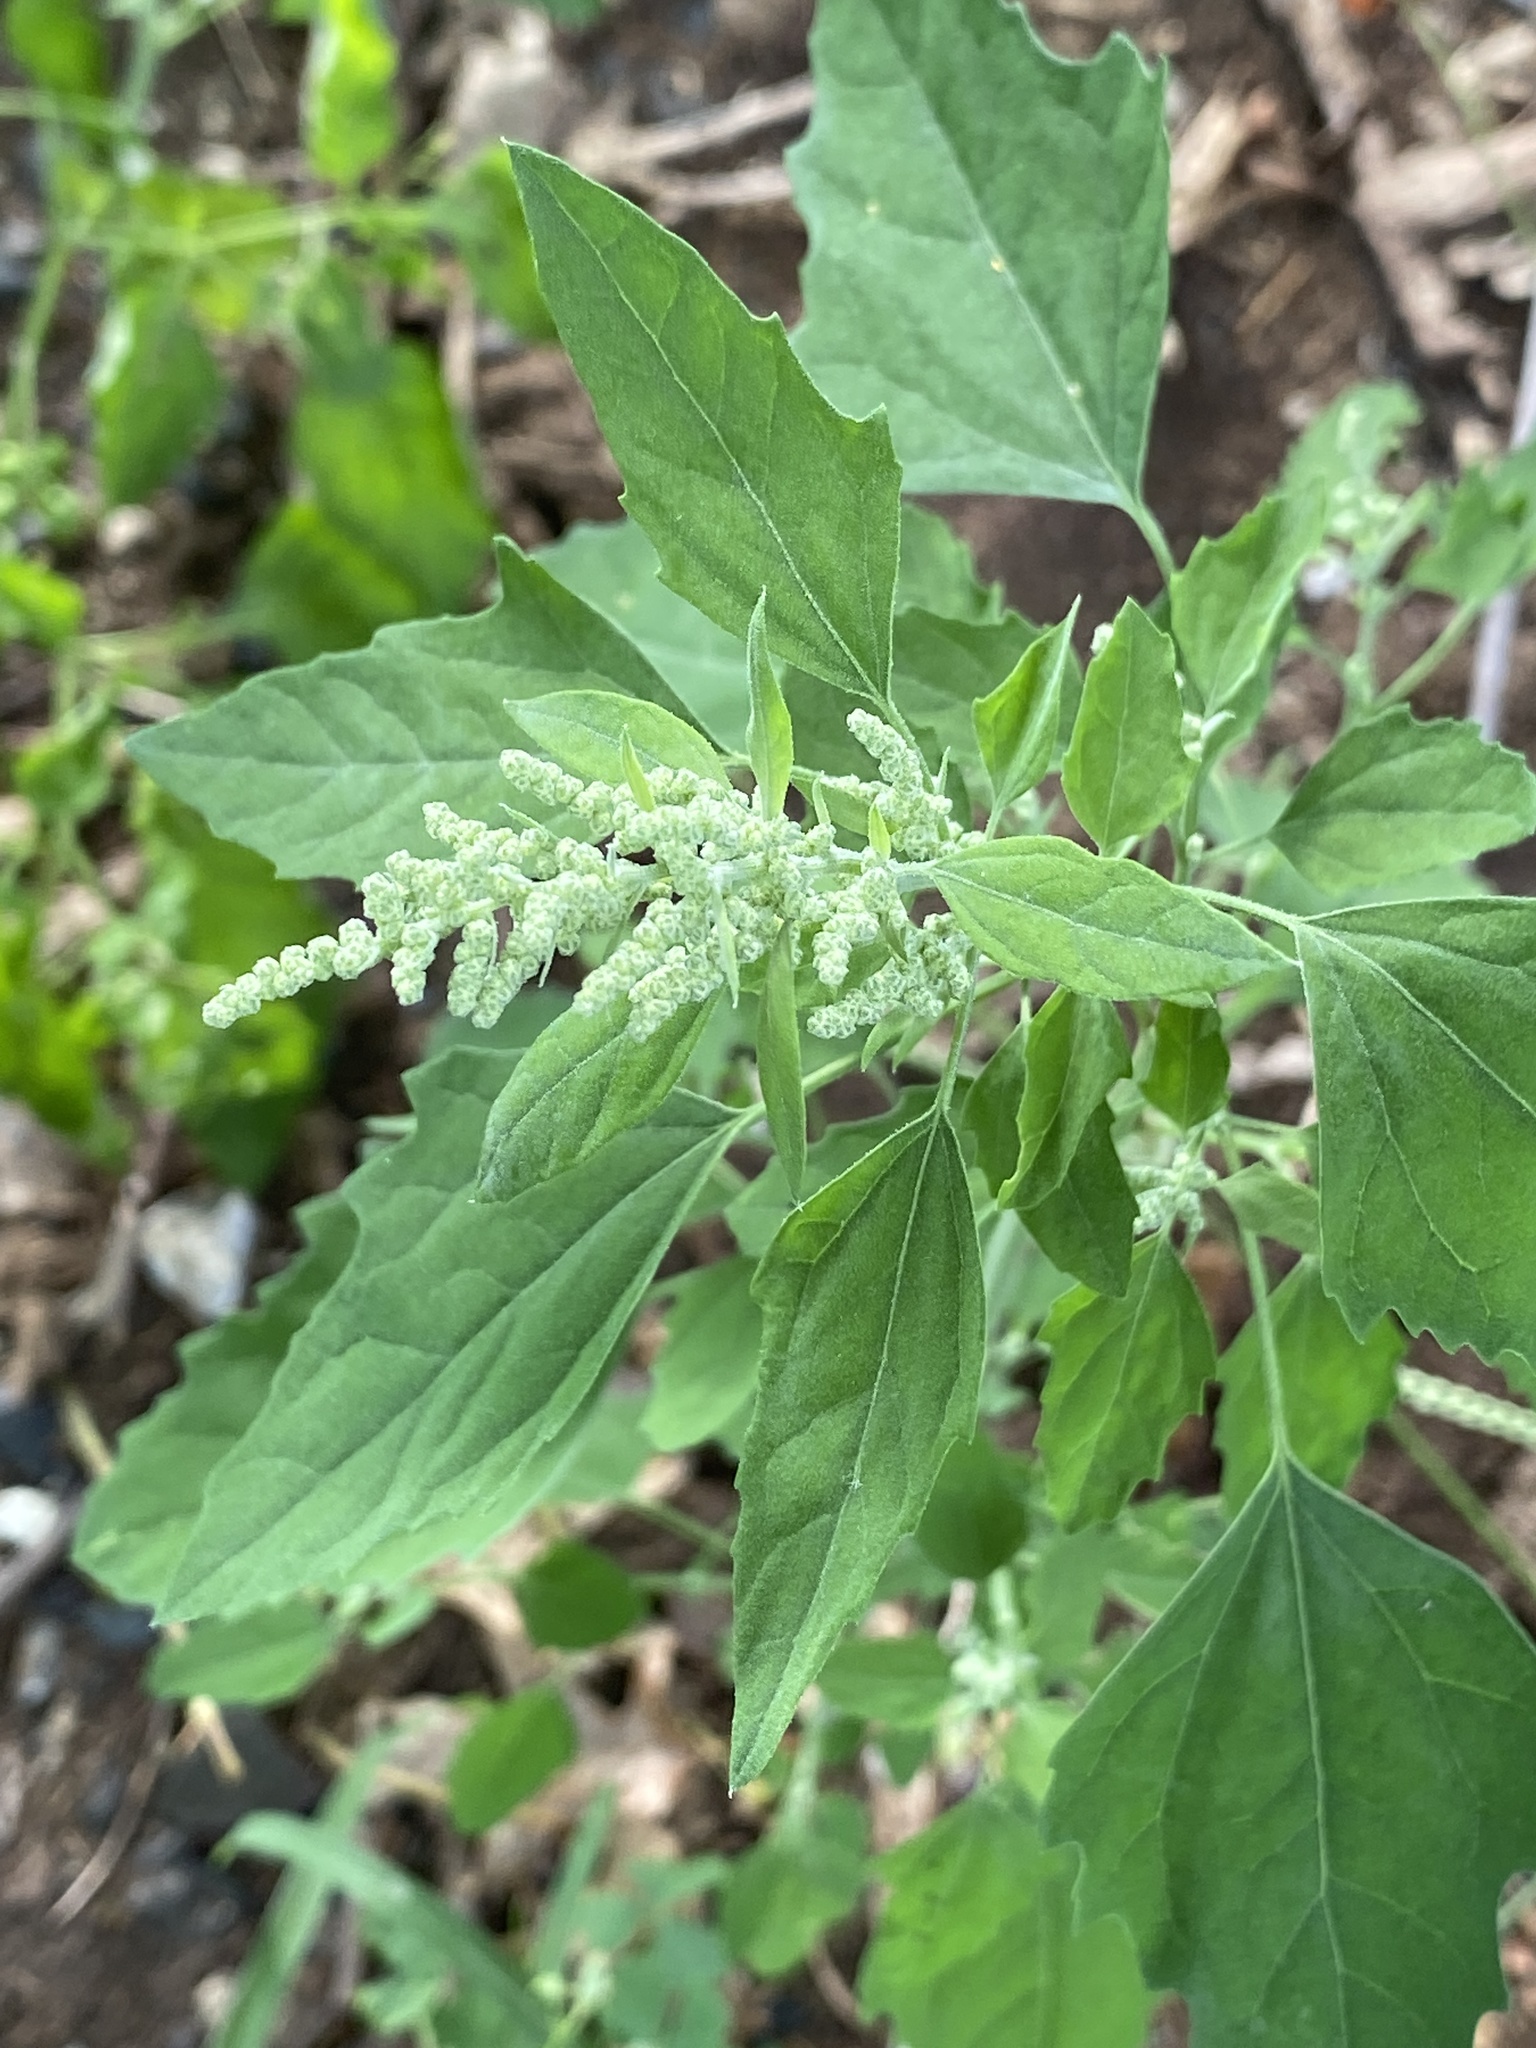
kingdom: Plantae
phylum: Tracheophyta
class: Magnoliopsida
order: Caryophyllales
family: Amaranthaceae
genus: Chenopodium
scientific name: Chenopodium album
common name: Fat-hen
